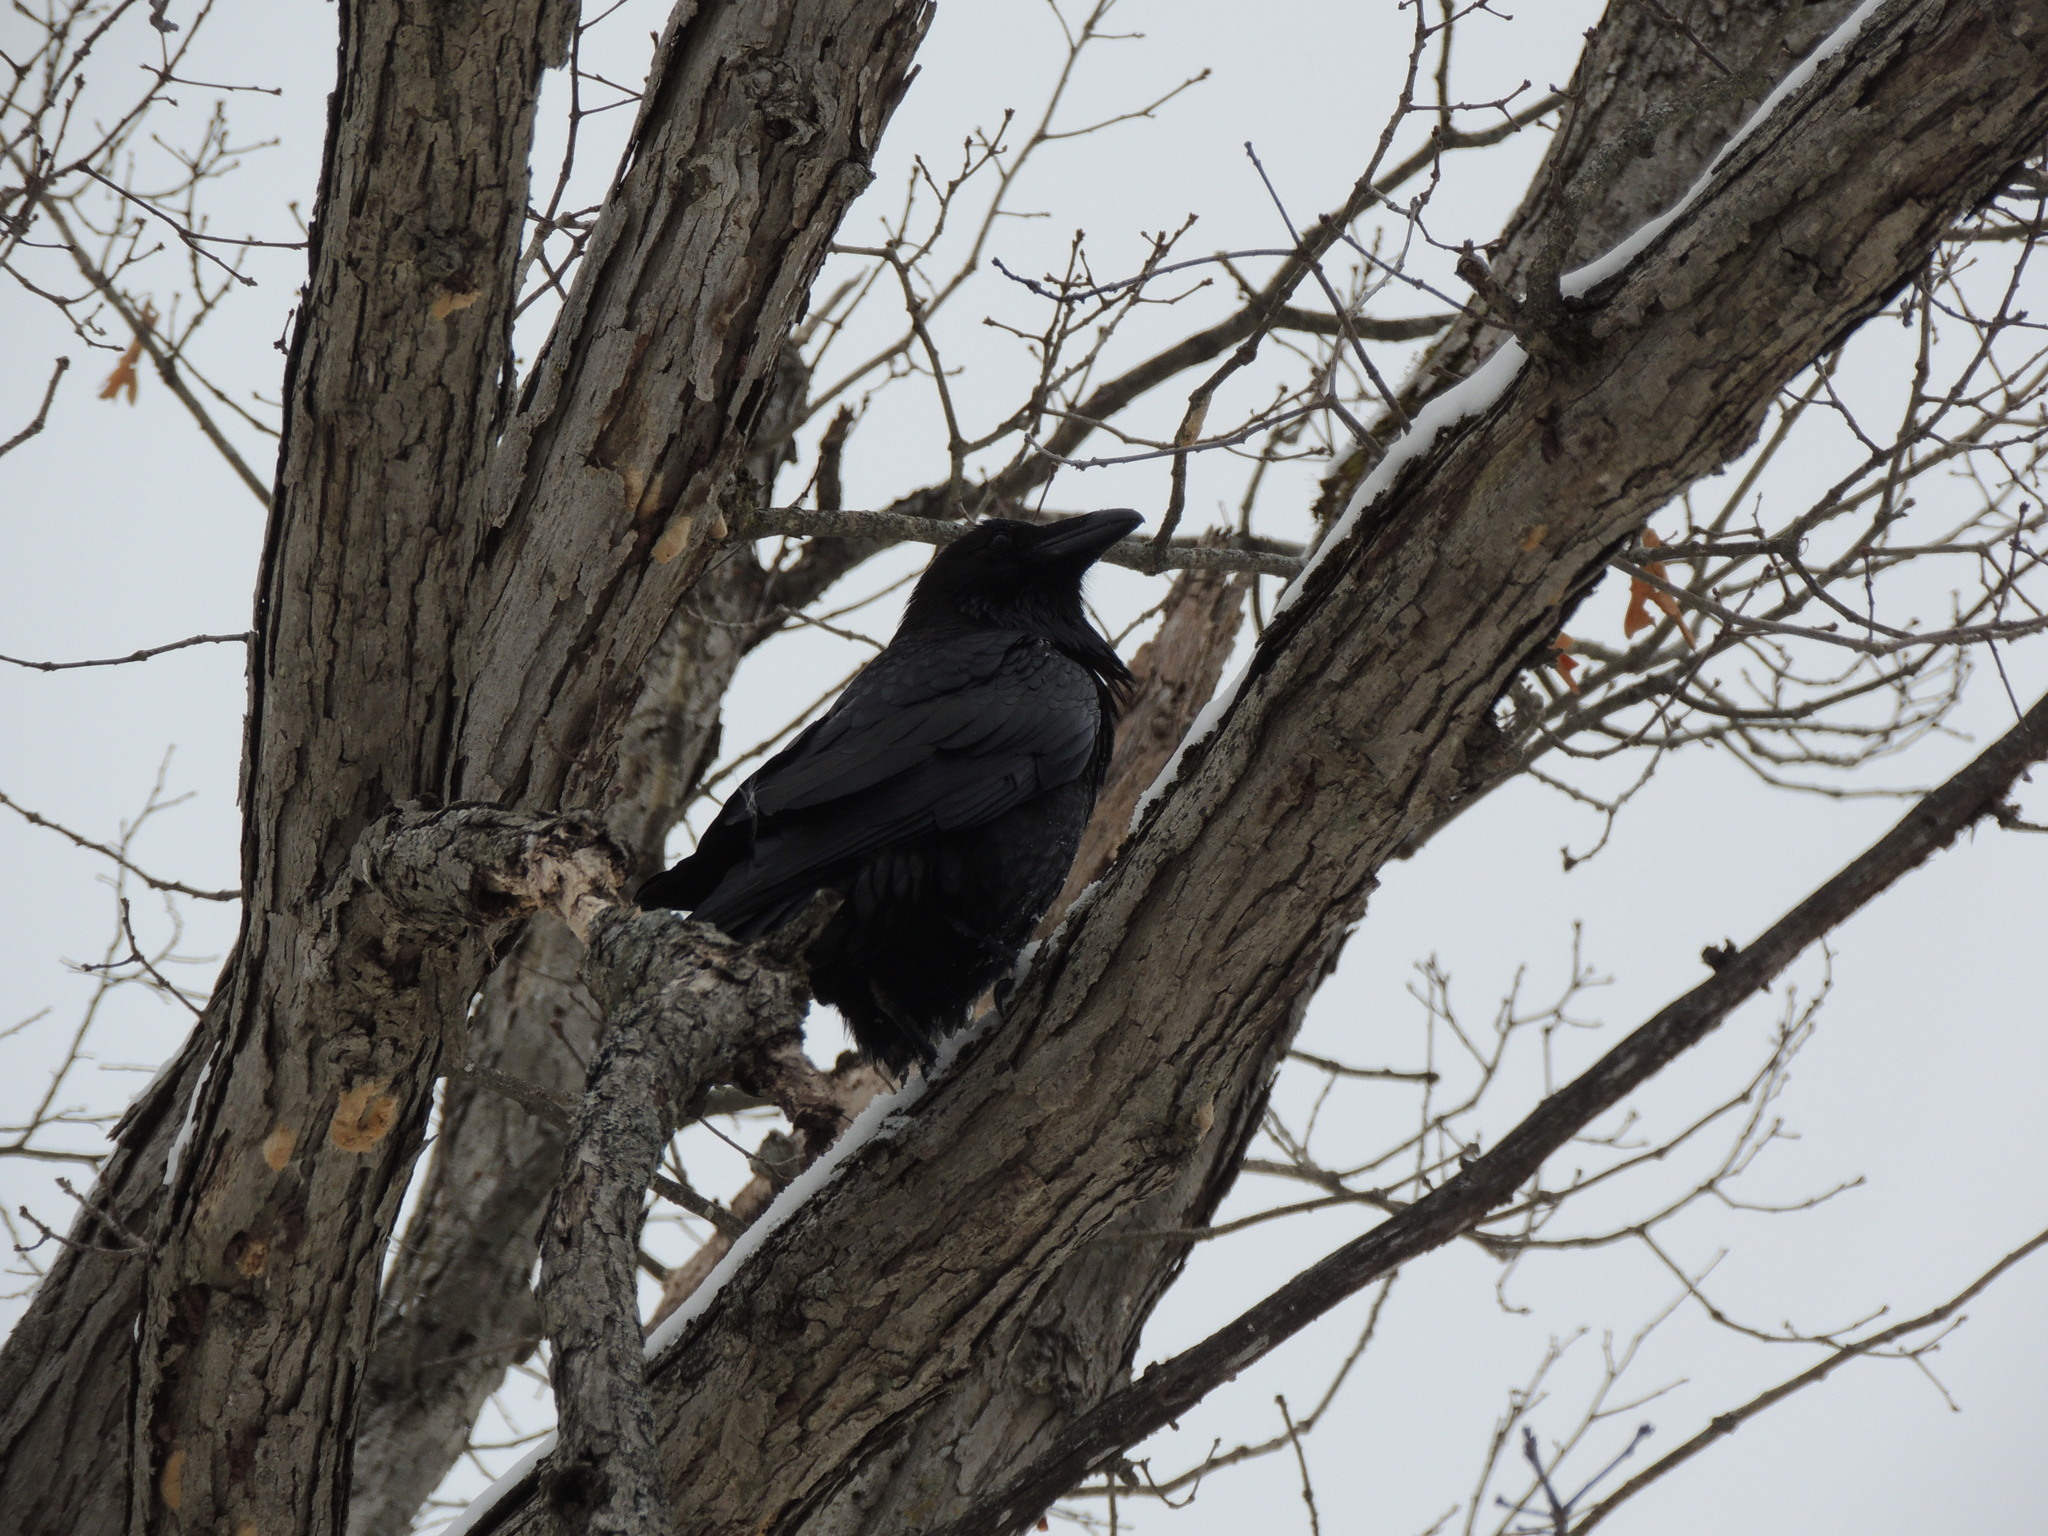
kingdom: Animalia
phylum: Chordata
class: Aves
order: Passeriformes
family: Corvidae
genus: Corvus
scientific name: Corvus corax
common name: Common raven
